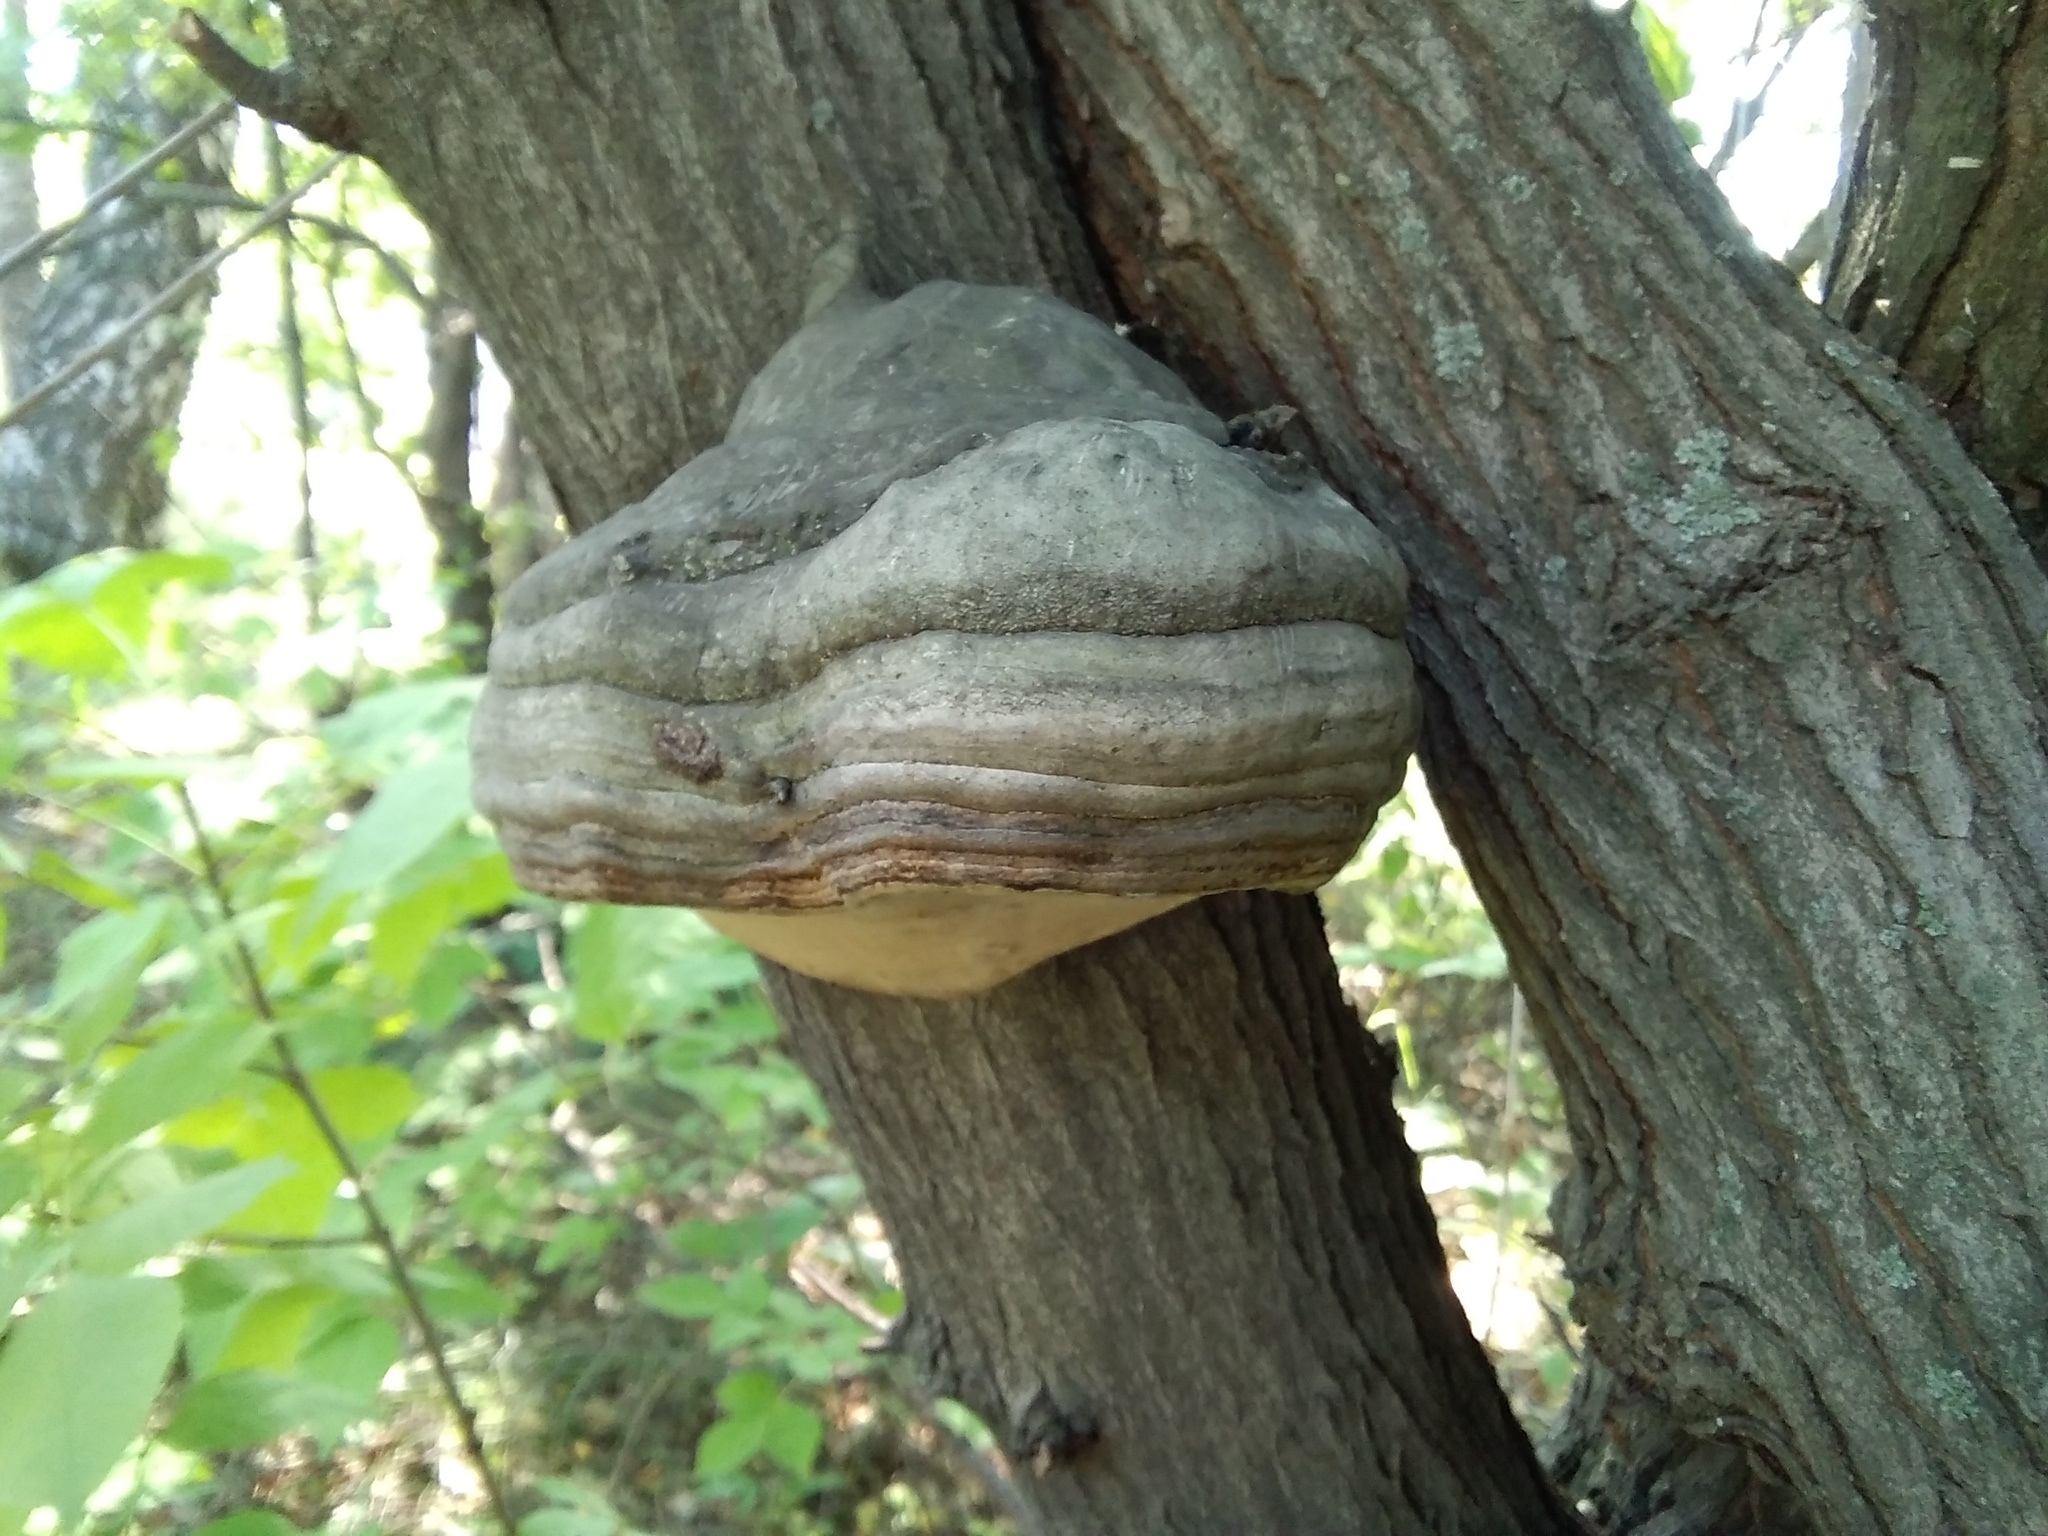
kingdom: Fungi
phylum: Basidiomycota
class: Agaricomycetes
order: Polyporales
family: Polyporaceae
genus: Fomes
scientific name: Fomes fomentarius
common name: Hoof fungus
